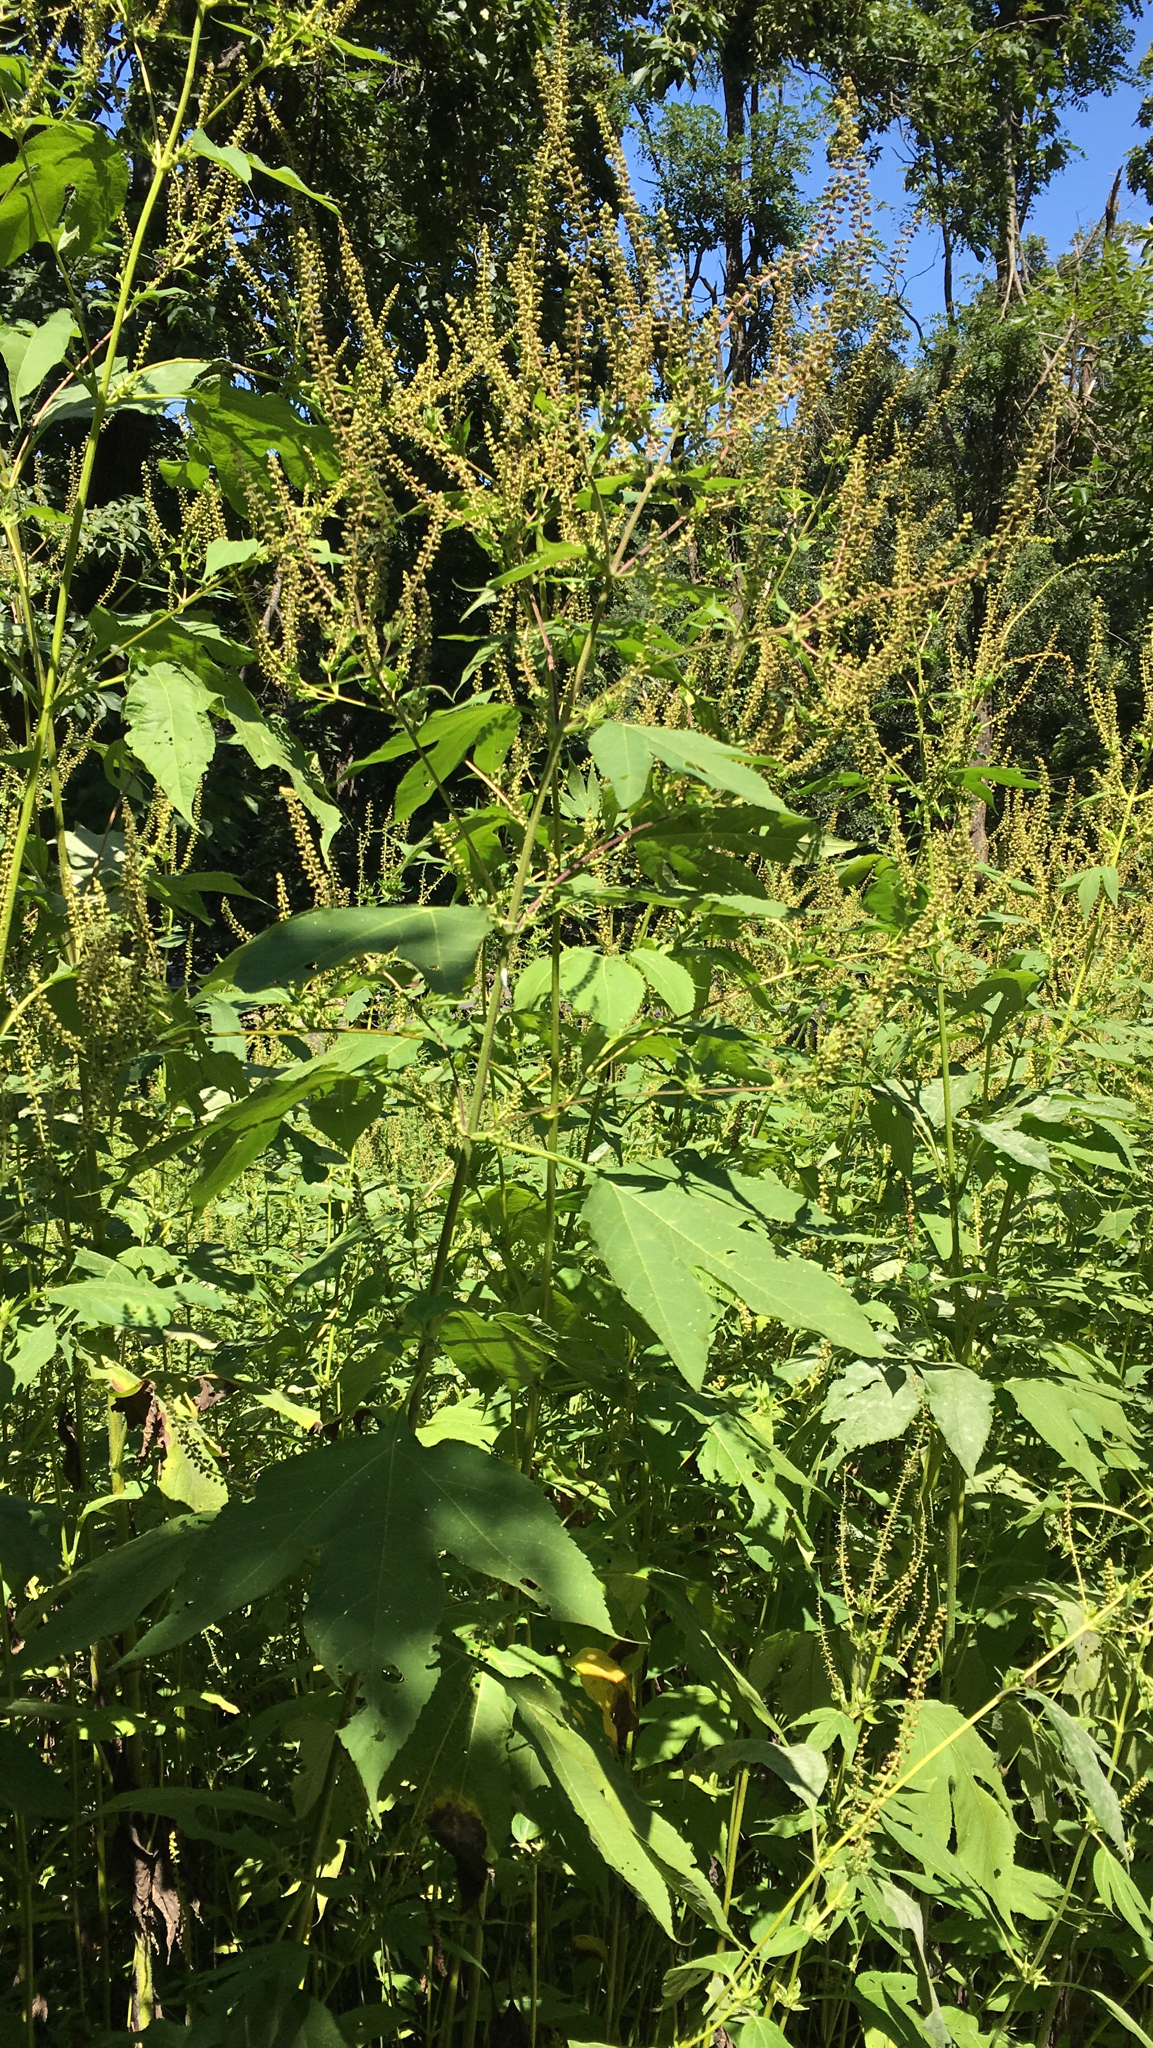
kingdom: Plantae
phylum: Tracheophyta
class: Magnoliopsida
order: Asterales
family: Asteraceae
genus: Ambrosia
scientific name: Ambrosia trifida
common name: Giant ragweed
